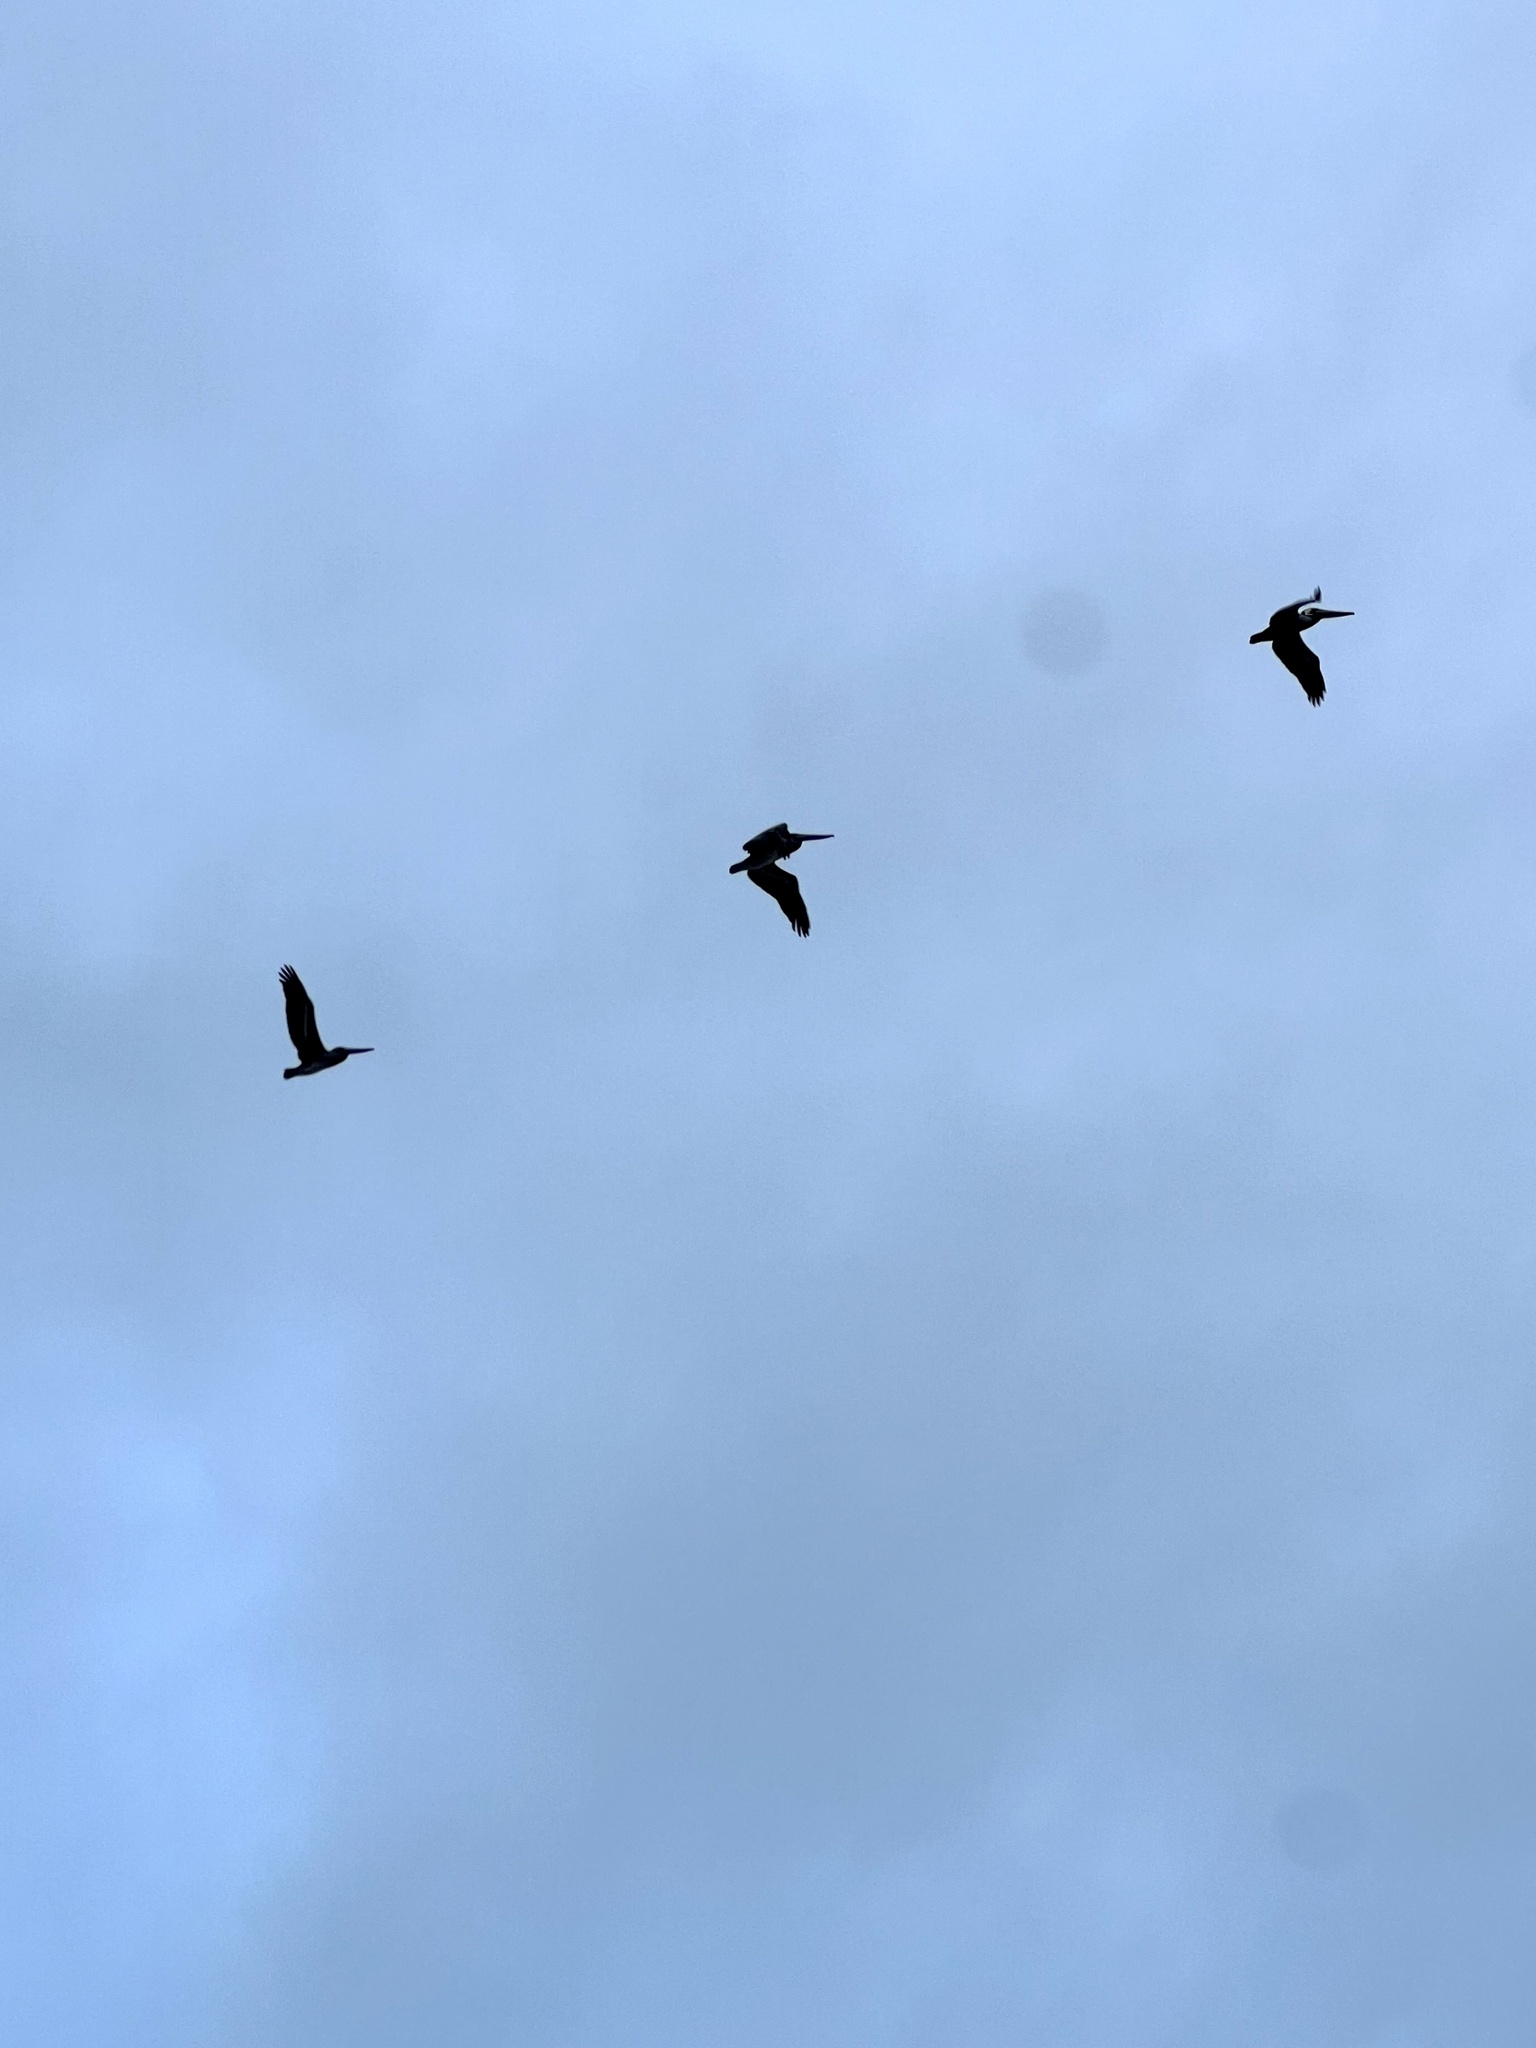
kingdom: Animalia
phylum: Chordata
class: Aves
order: Pelecaniformes
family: Pelecanidae
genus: Pelecanus
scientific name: Pelecanus occidentalis
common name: Brown pelican
